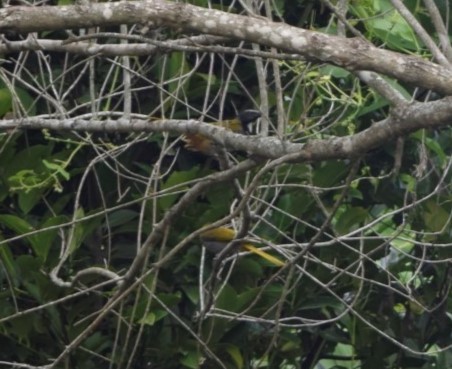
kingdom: Animalia
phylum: Chordata
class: Aves
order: Passeriformes
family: Thraupidae
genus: Saltator
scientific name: Saltator atriceps
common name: Black-headed saltator
